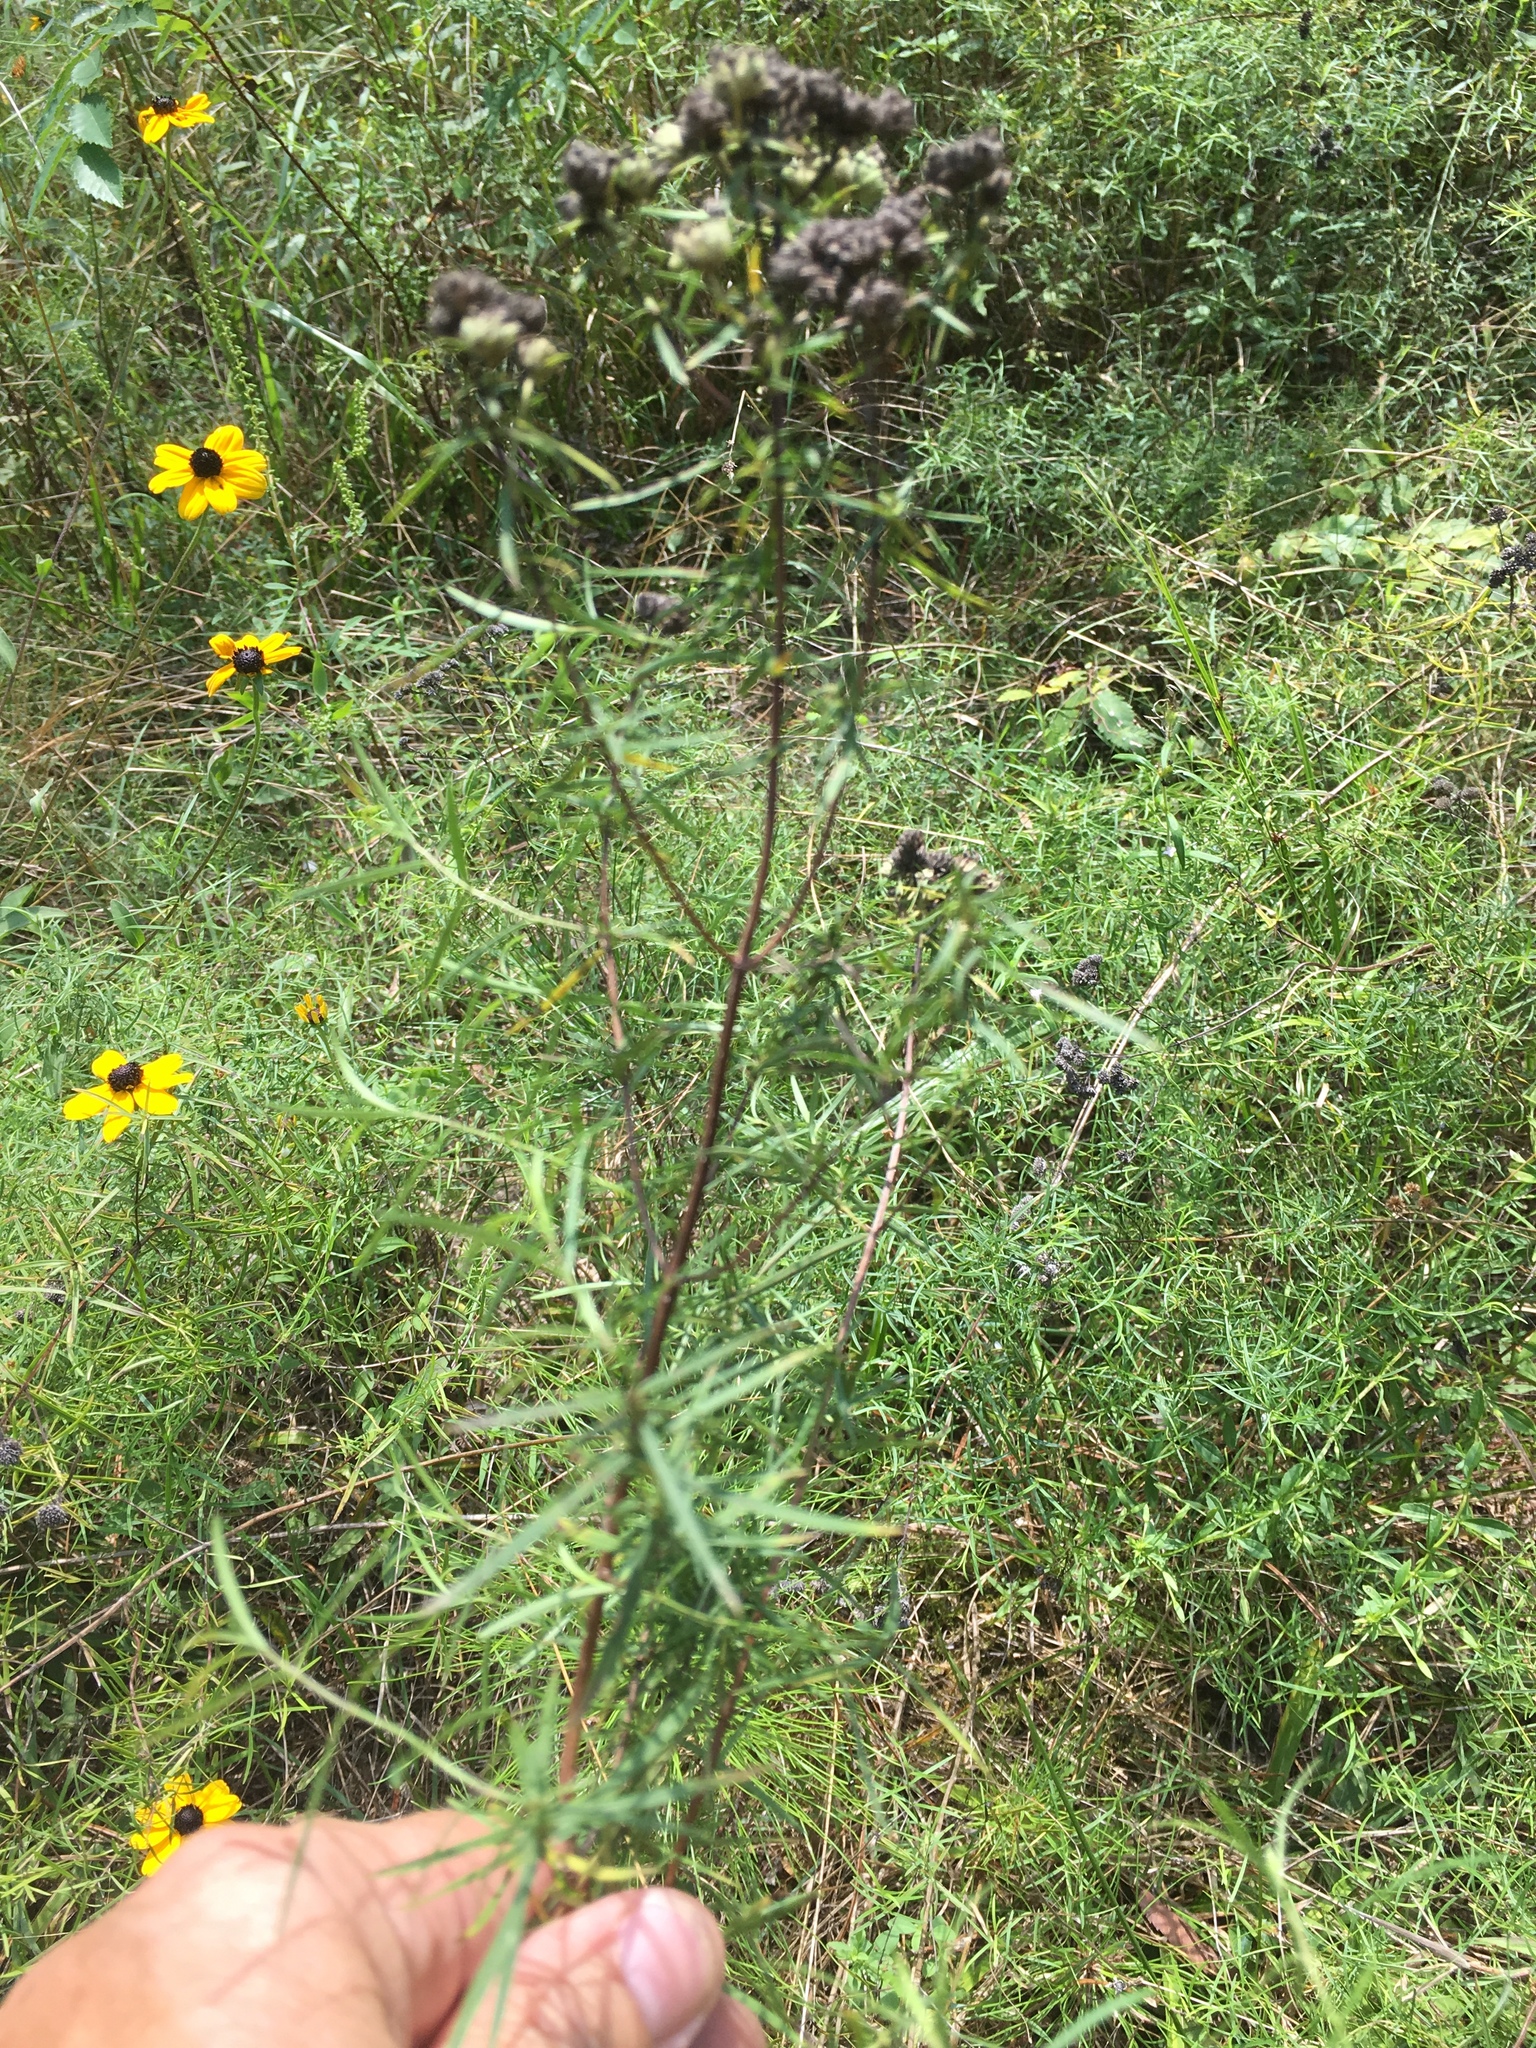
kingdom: Plantae
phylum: Tracheophyta
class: Magnoliopsida
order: Lamiales
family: Lamiaceae
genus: Pycnanthemum
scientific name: Pycnanthemum tenuifolium
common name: Narrow-leaf mountain-mint
